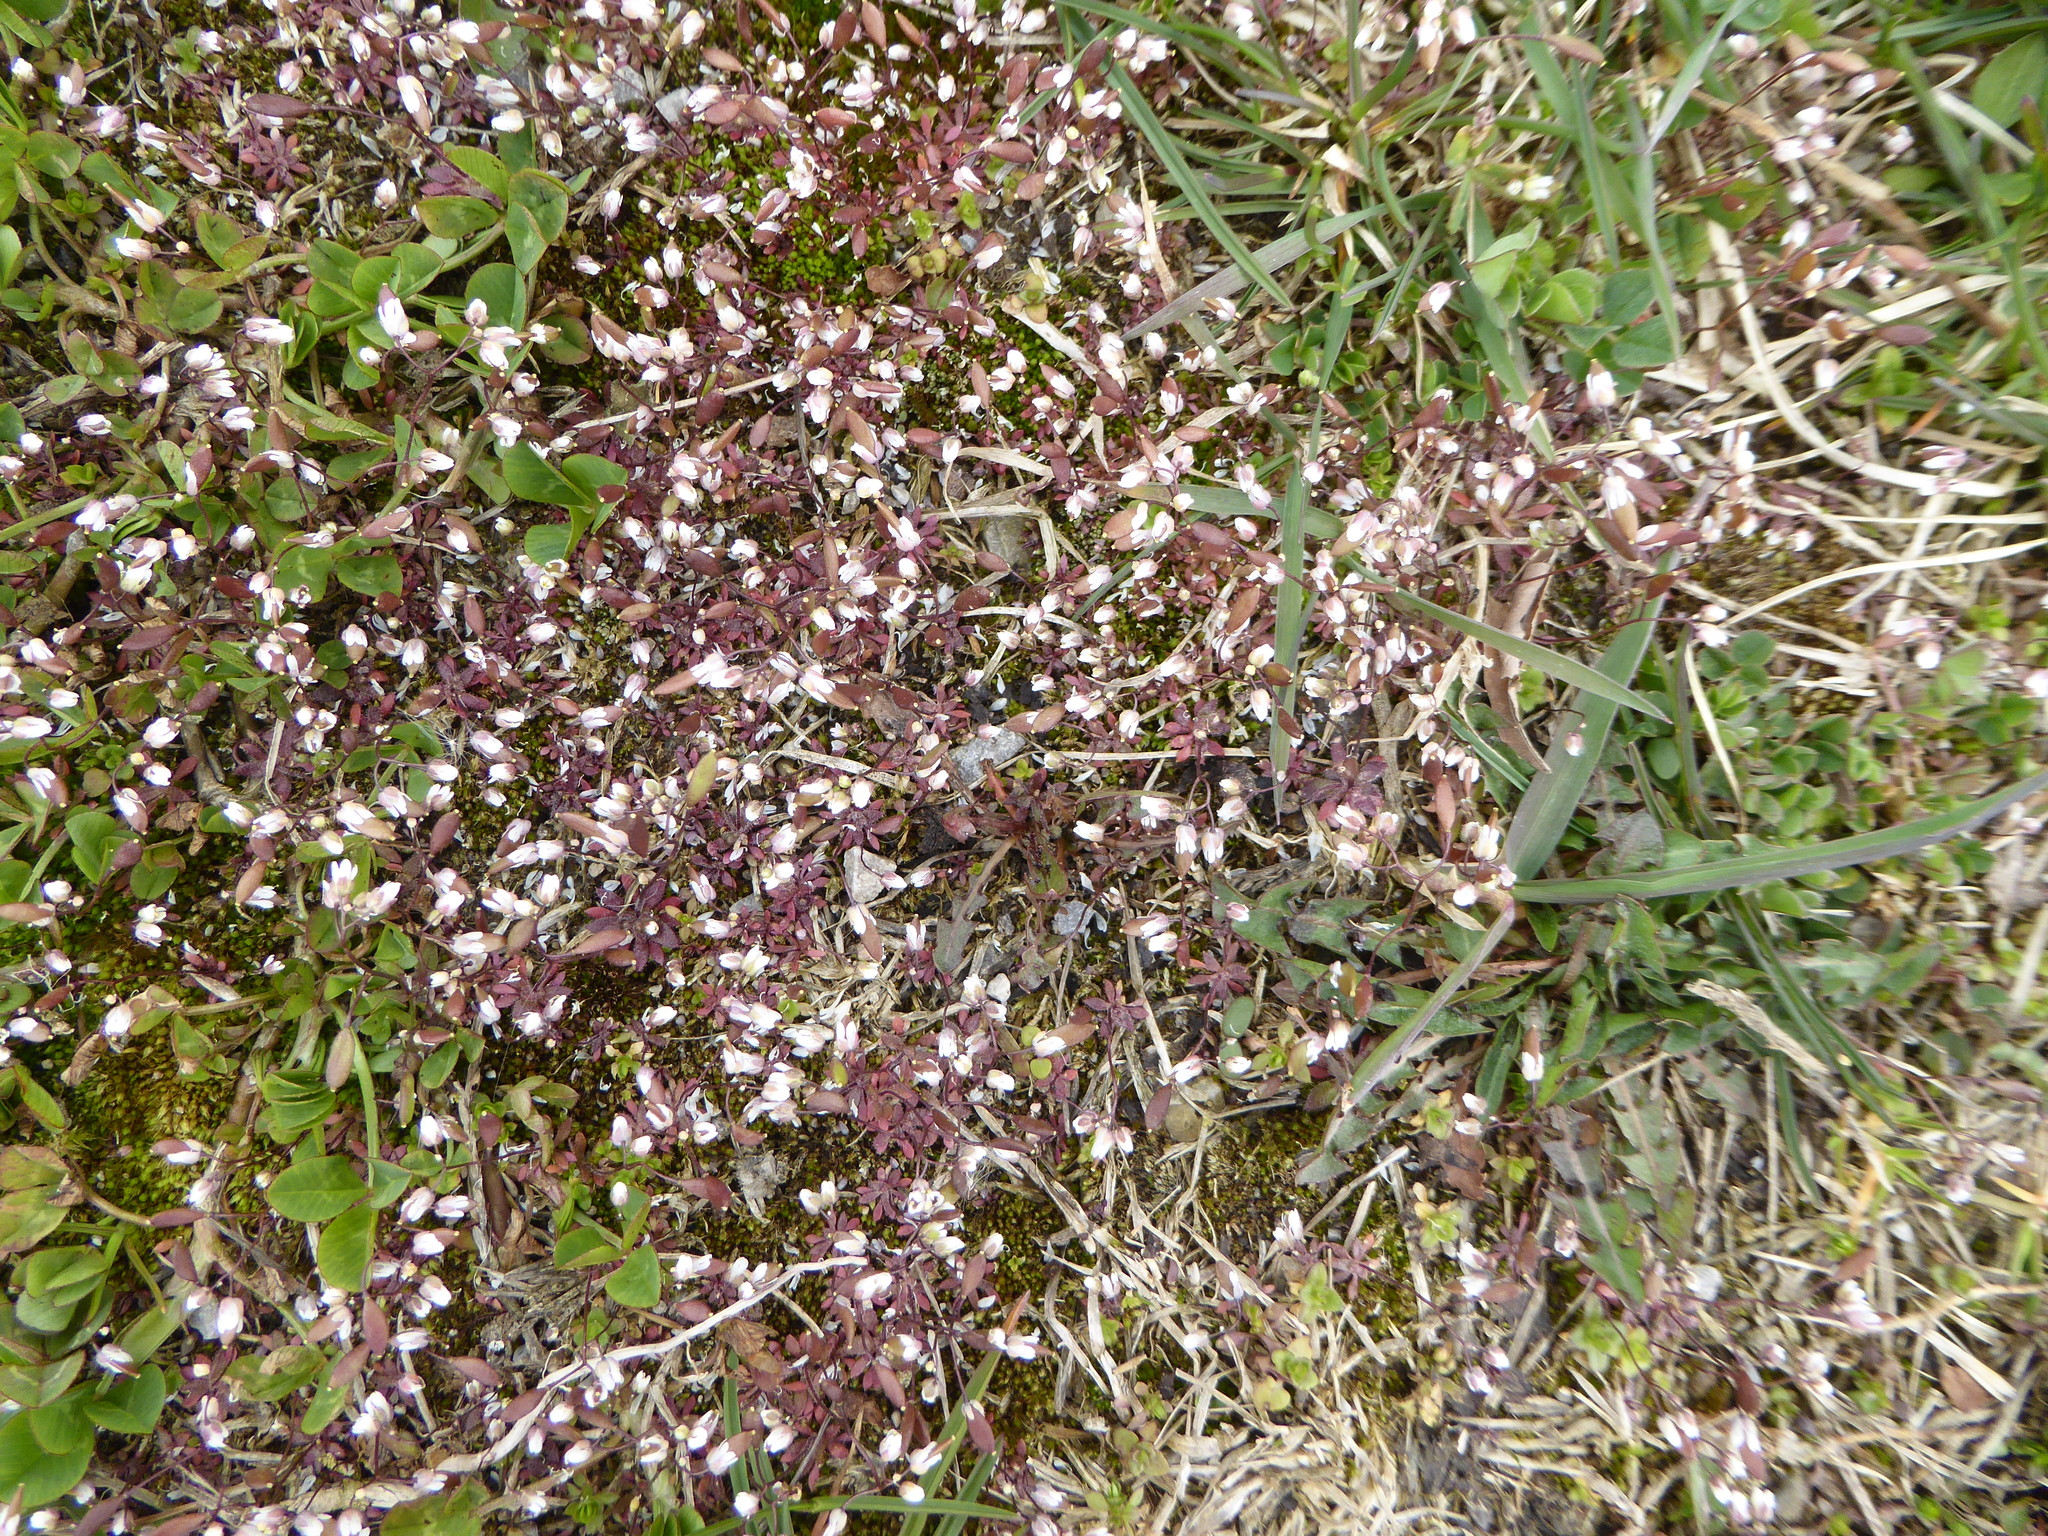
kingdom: Plantae
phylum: Tracheophyta
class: Magnoliopsida
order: Brassicales
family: Brassicaceae
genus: Draba
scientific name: Draba verna
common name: Spring draba
